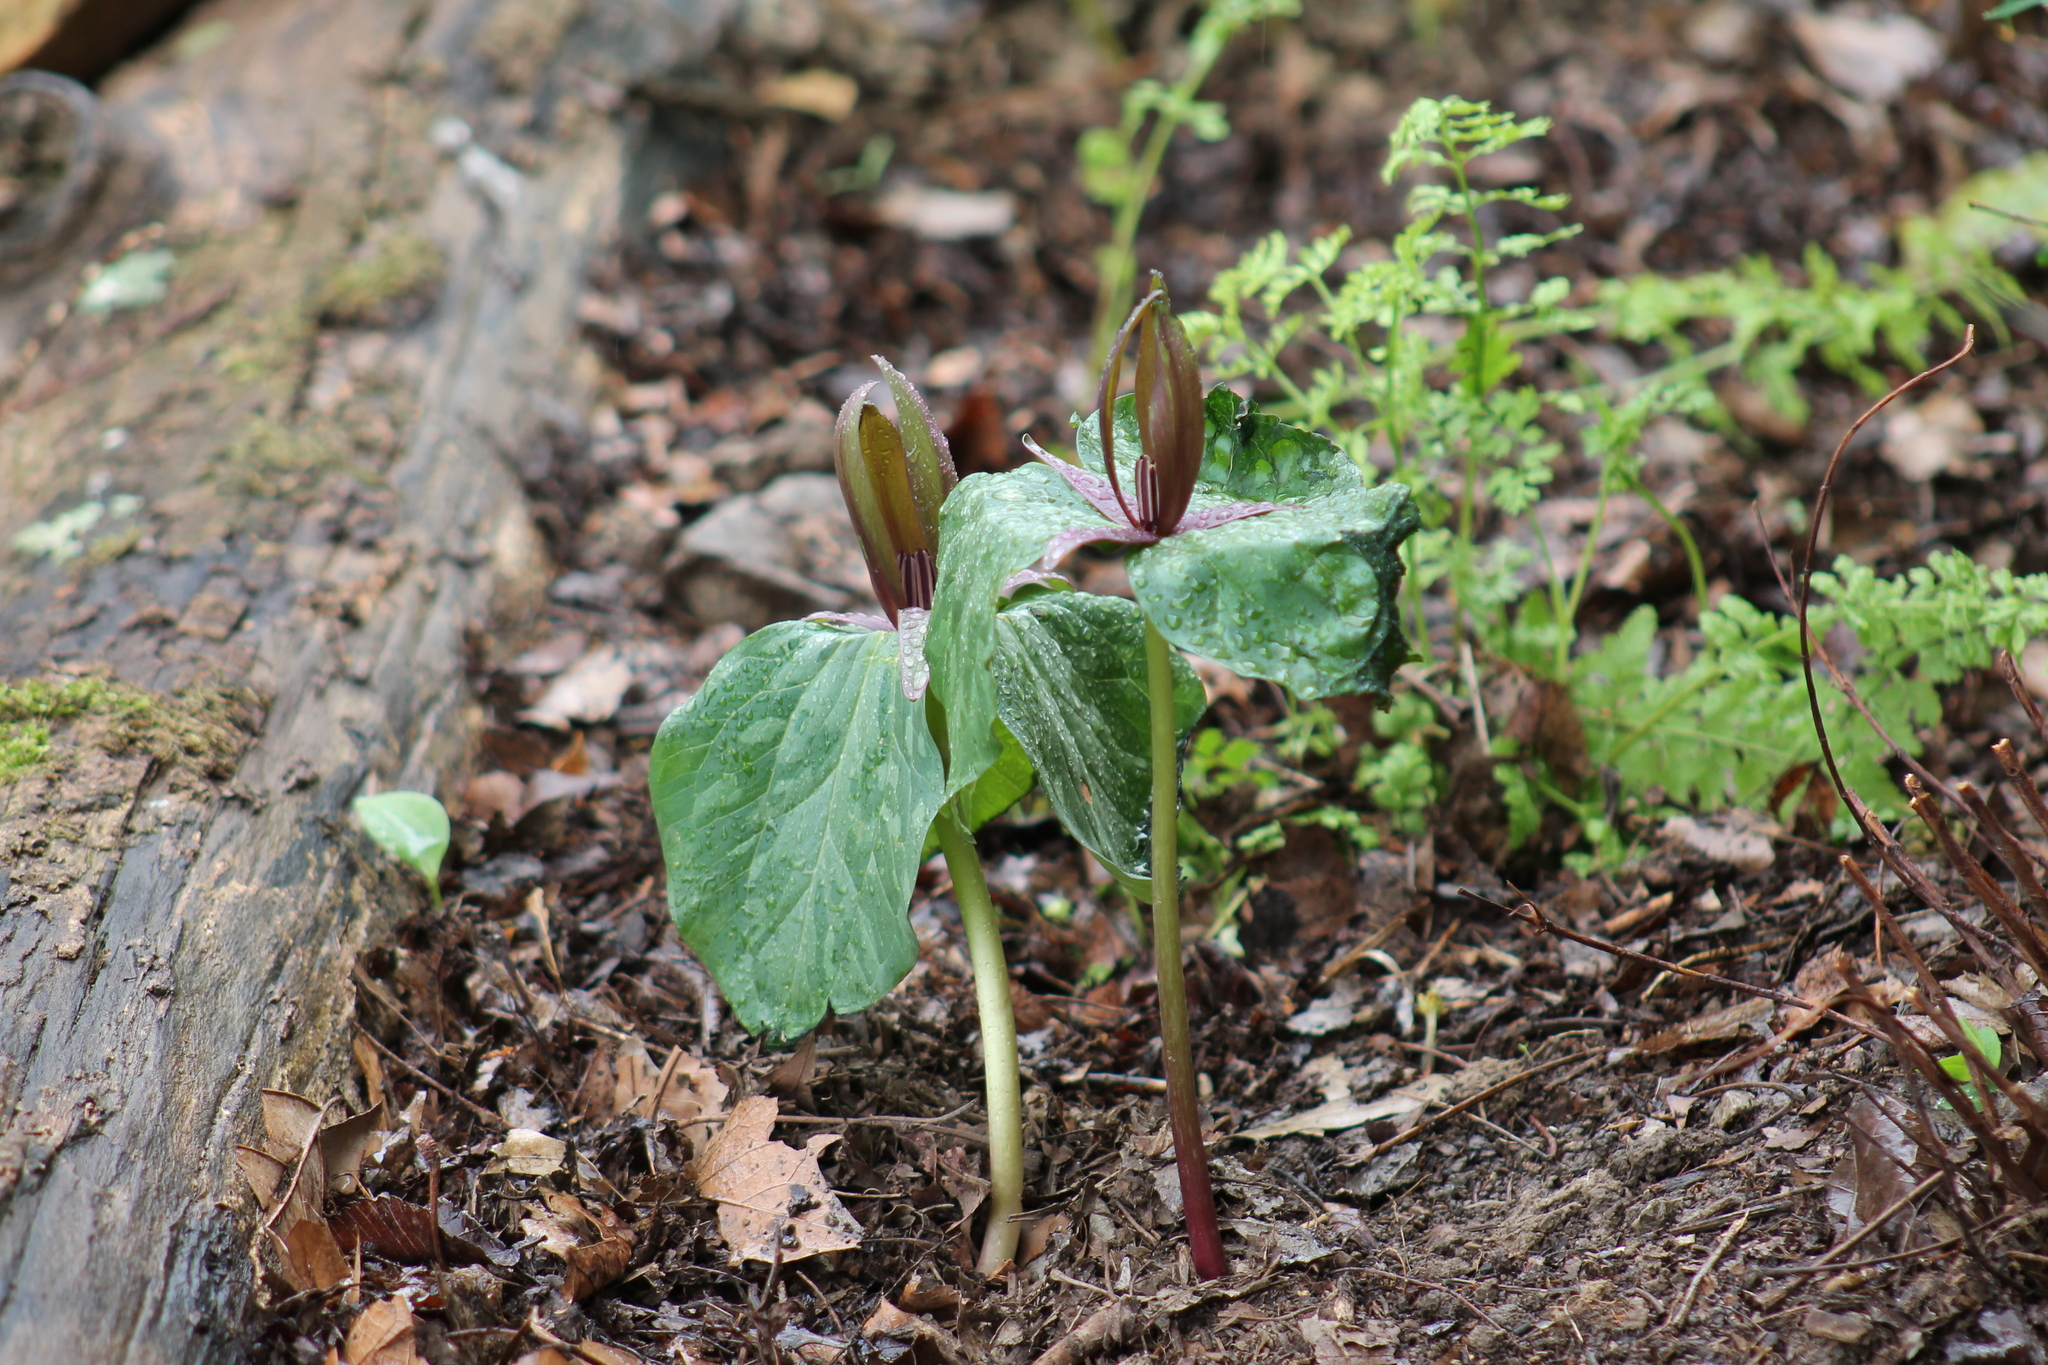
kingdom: Plantae
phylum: Tracheophyta
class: Liliopsida
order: Liliales
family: Melanthiaceae
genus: Trillium
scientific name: Trillium cuneatum
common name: Cuneate trillium
